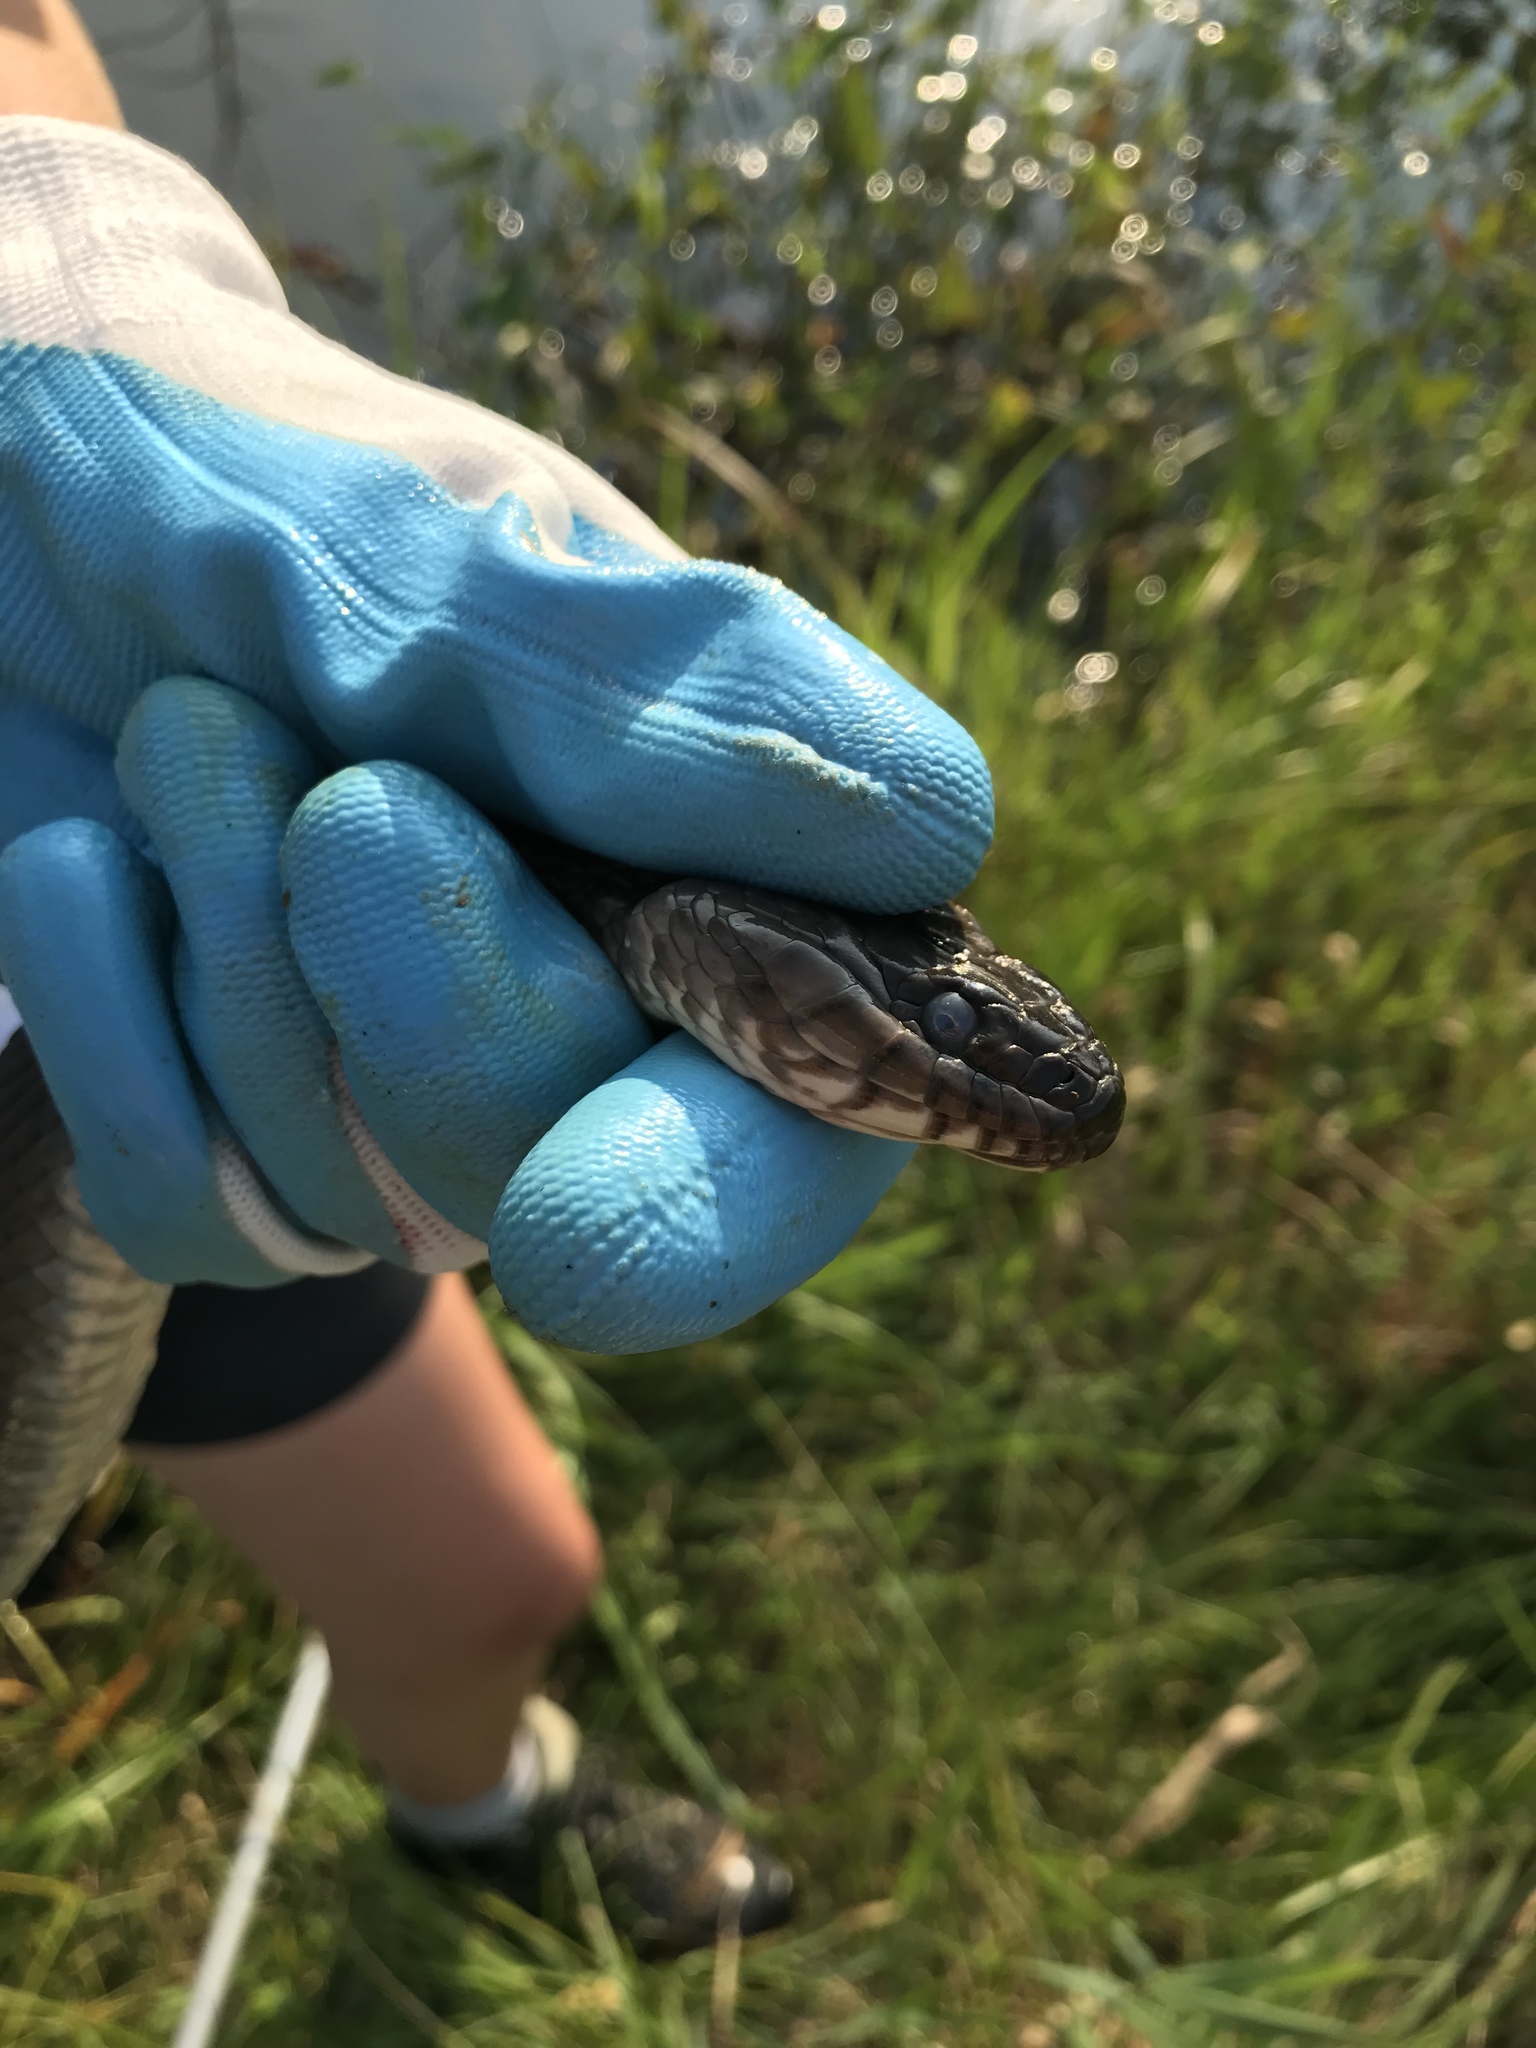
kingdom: Animalia
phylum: Chordata
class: Squamata
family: Colubridae
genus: Nerodia
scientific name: Nerodia sipedon
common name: Northern water snake
